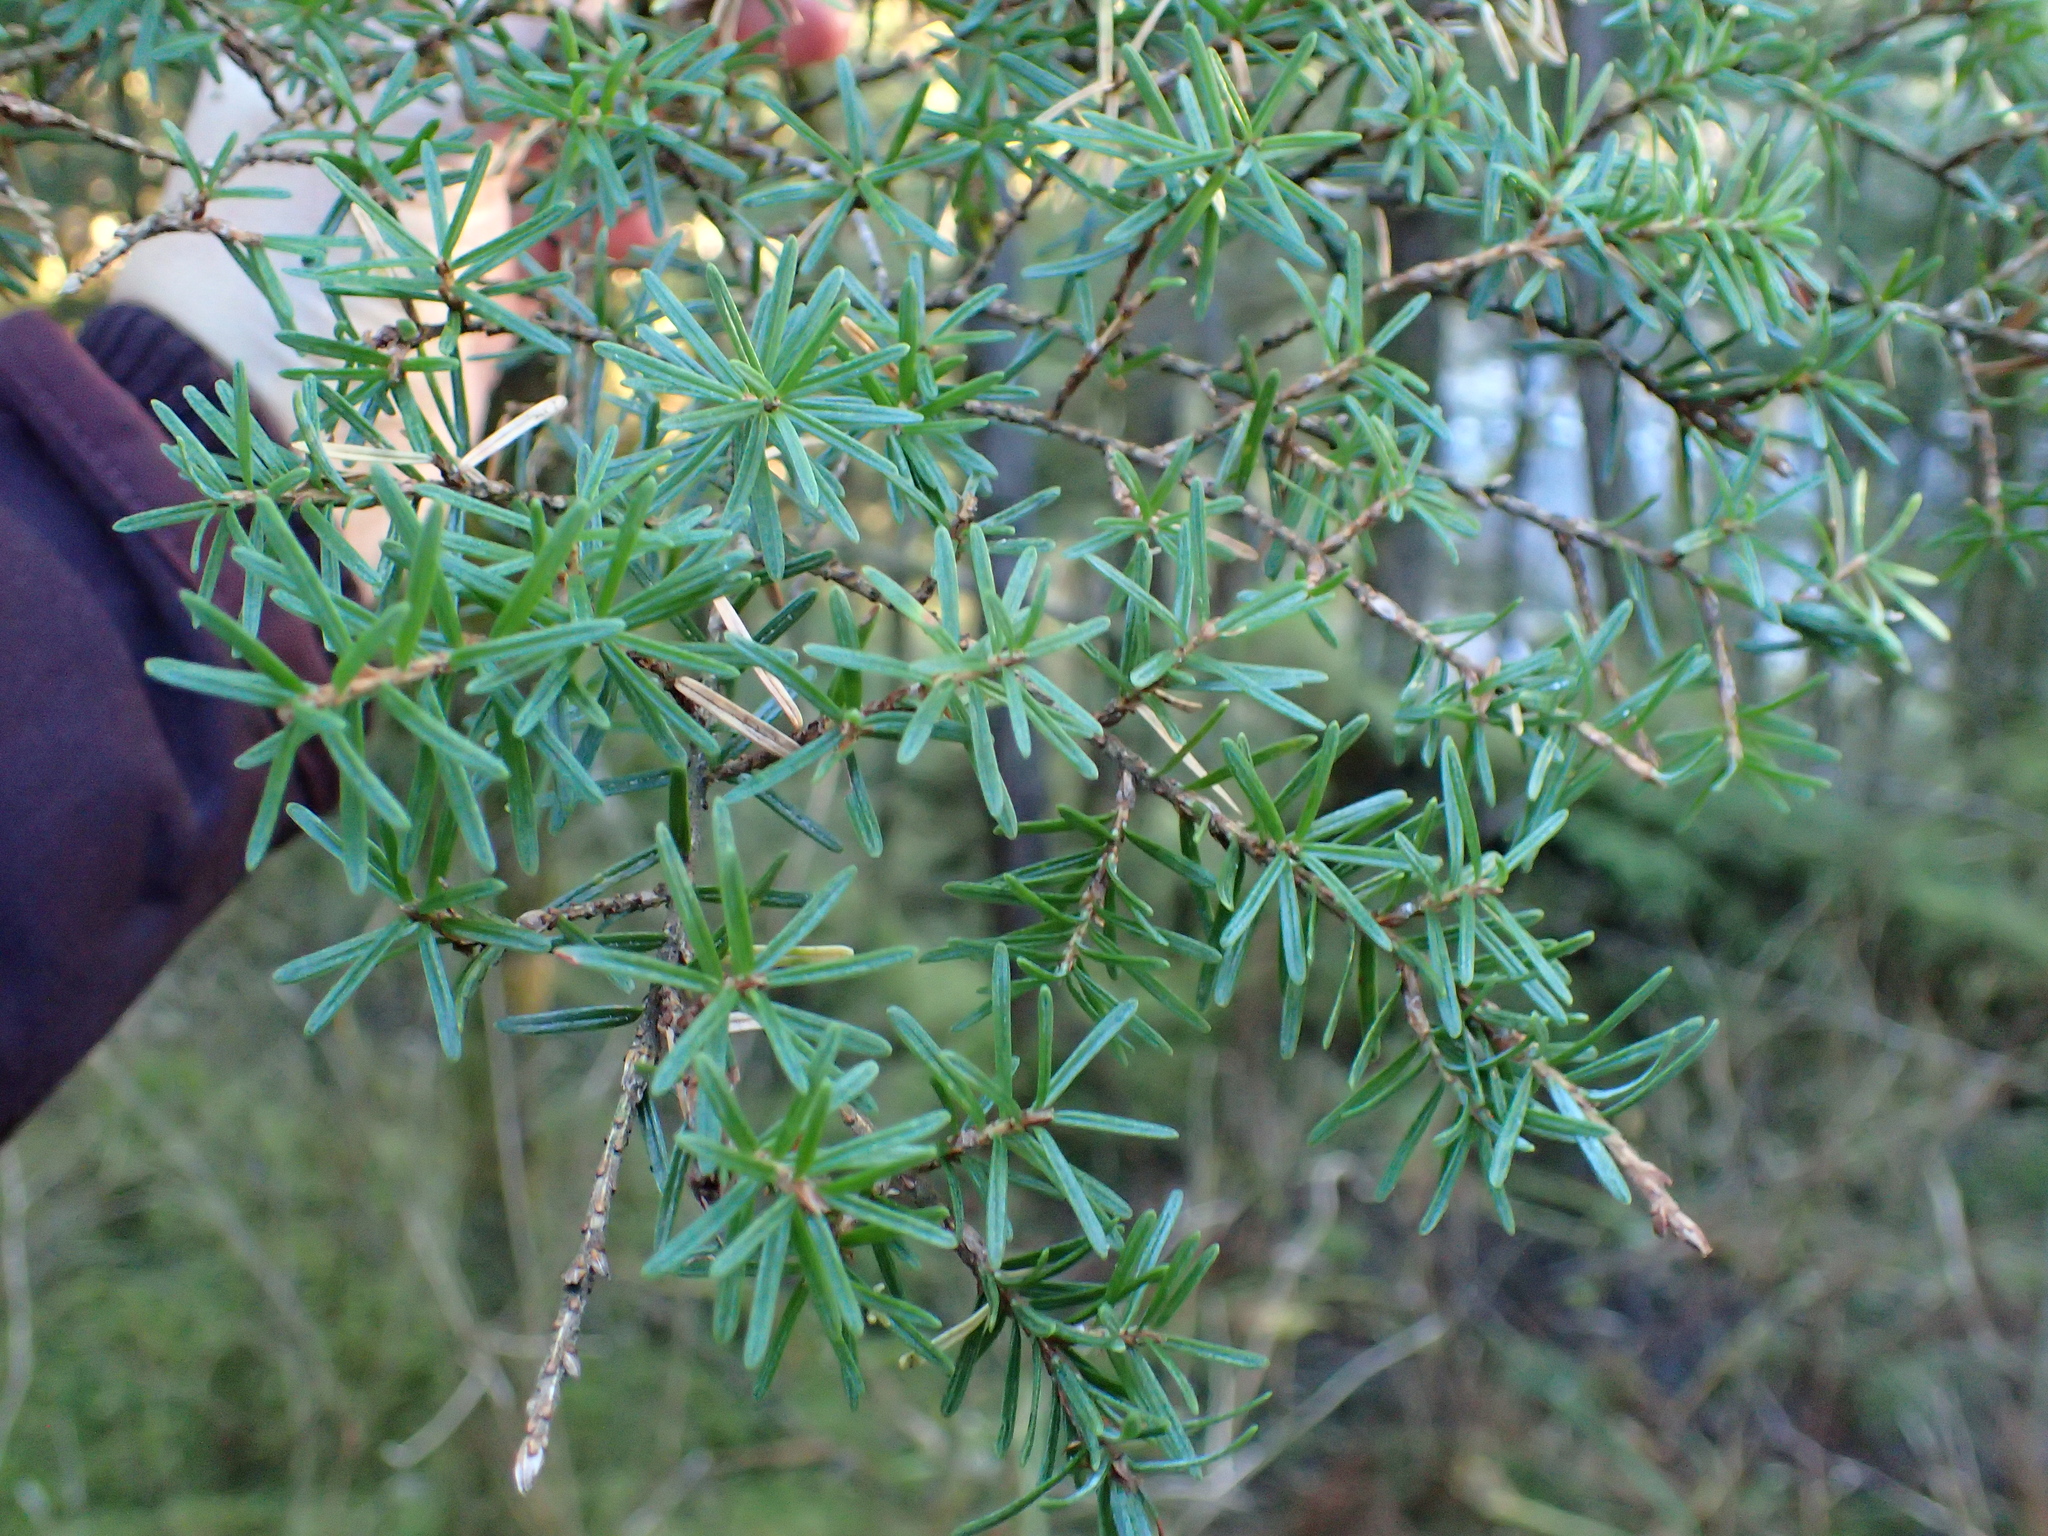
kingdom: Plantae
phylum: Tracheophyta
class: Pinopsida
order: Pinales
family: Pinaceae
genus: Tsuga
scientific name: Tsuga mertensiana
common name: Mountain hemlock
